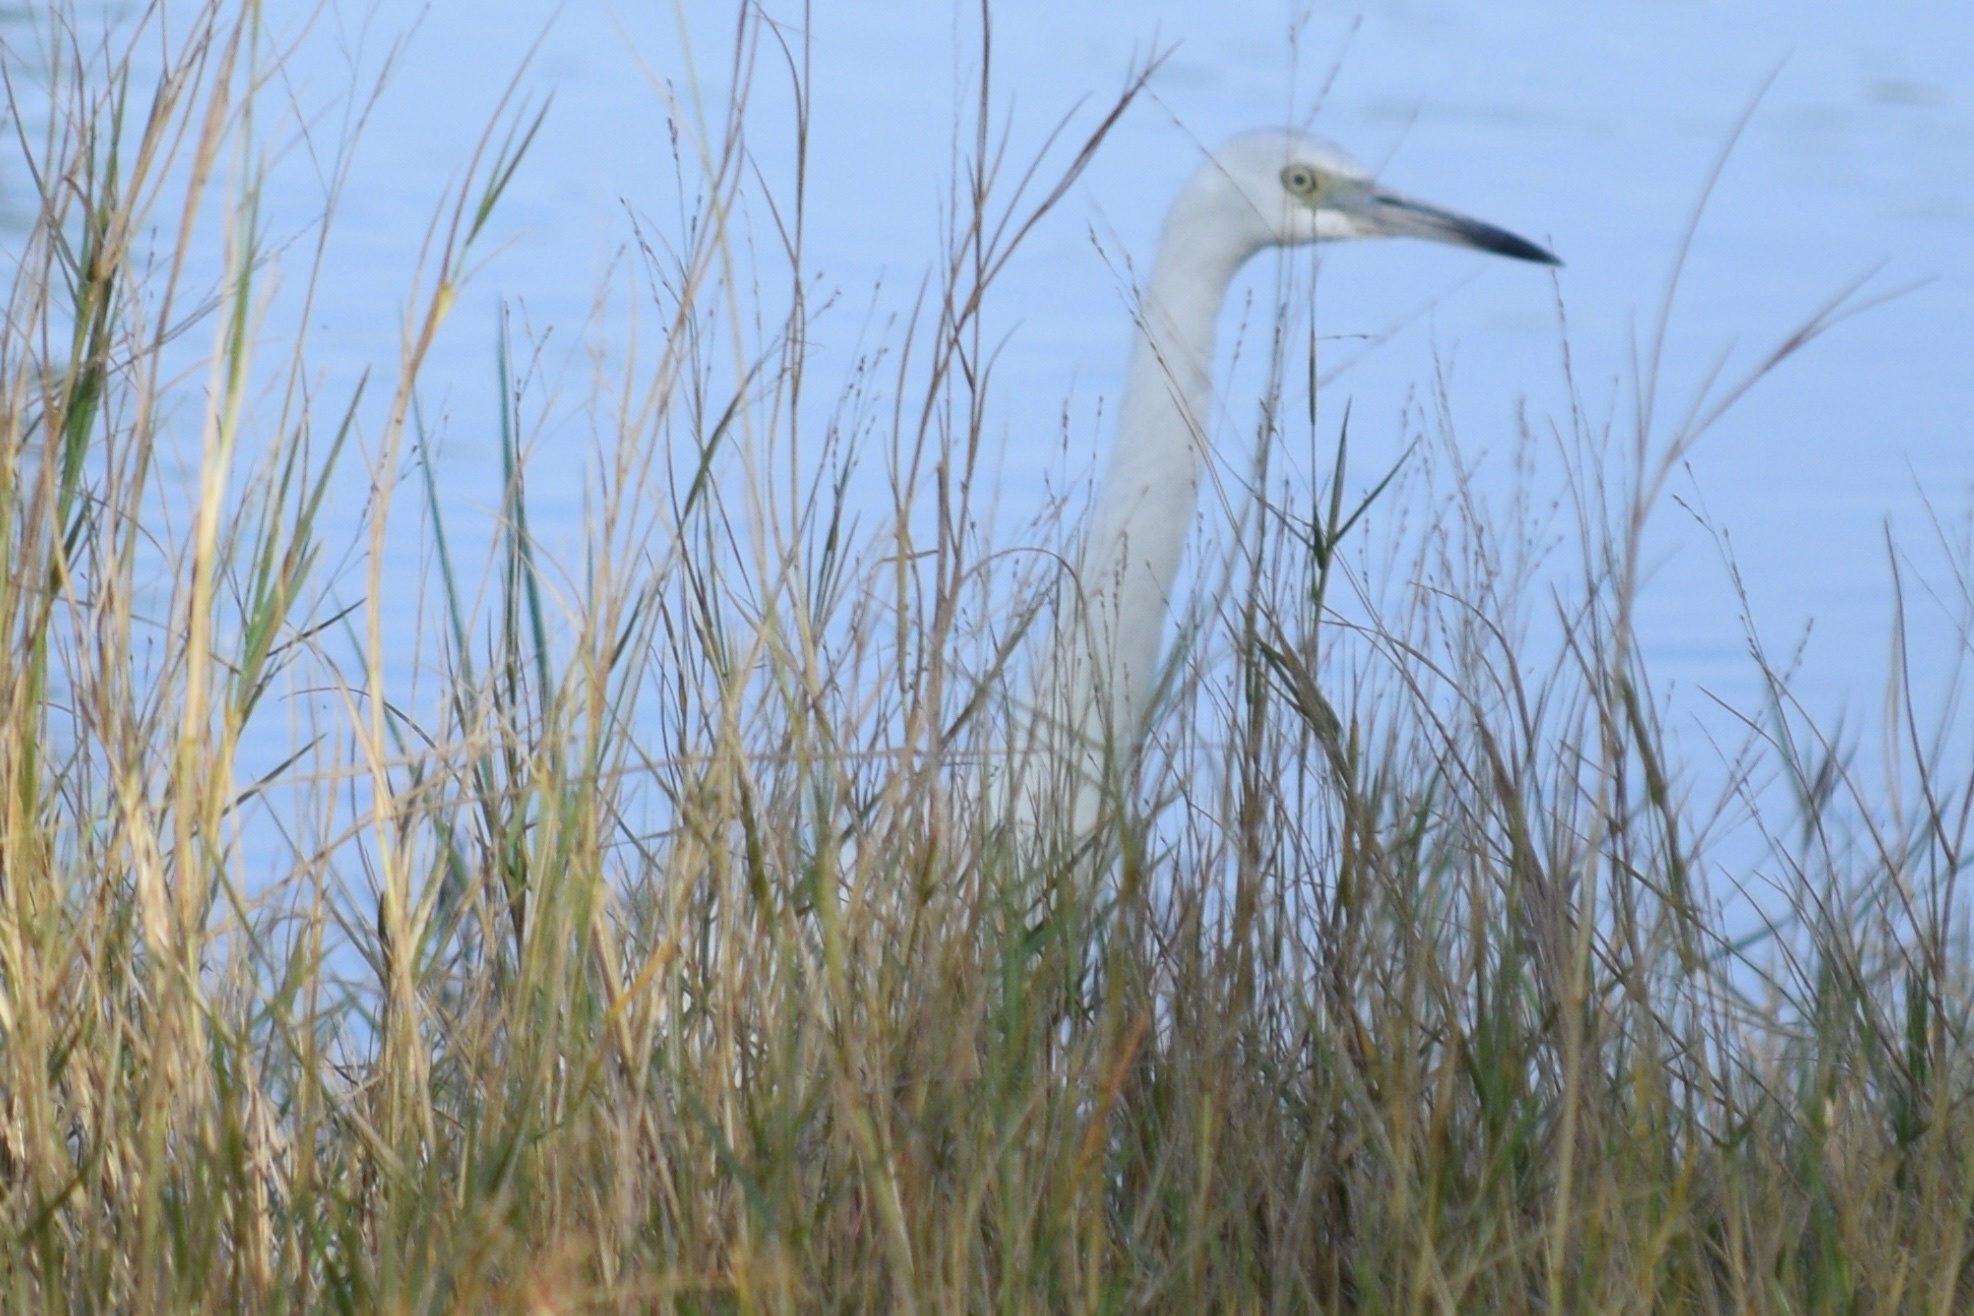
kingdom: Animalia
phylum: Chordata
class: Aves
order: Pelecaniformes
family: Ardeidae
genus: Egretta
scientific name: Egretta caerulea
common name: Little blue heron
